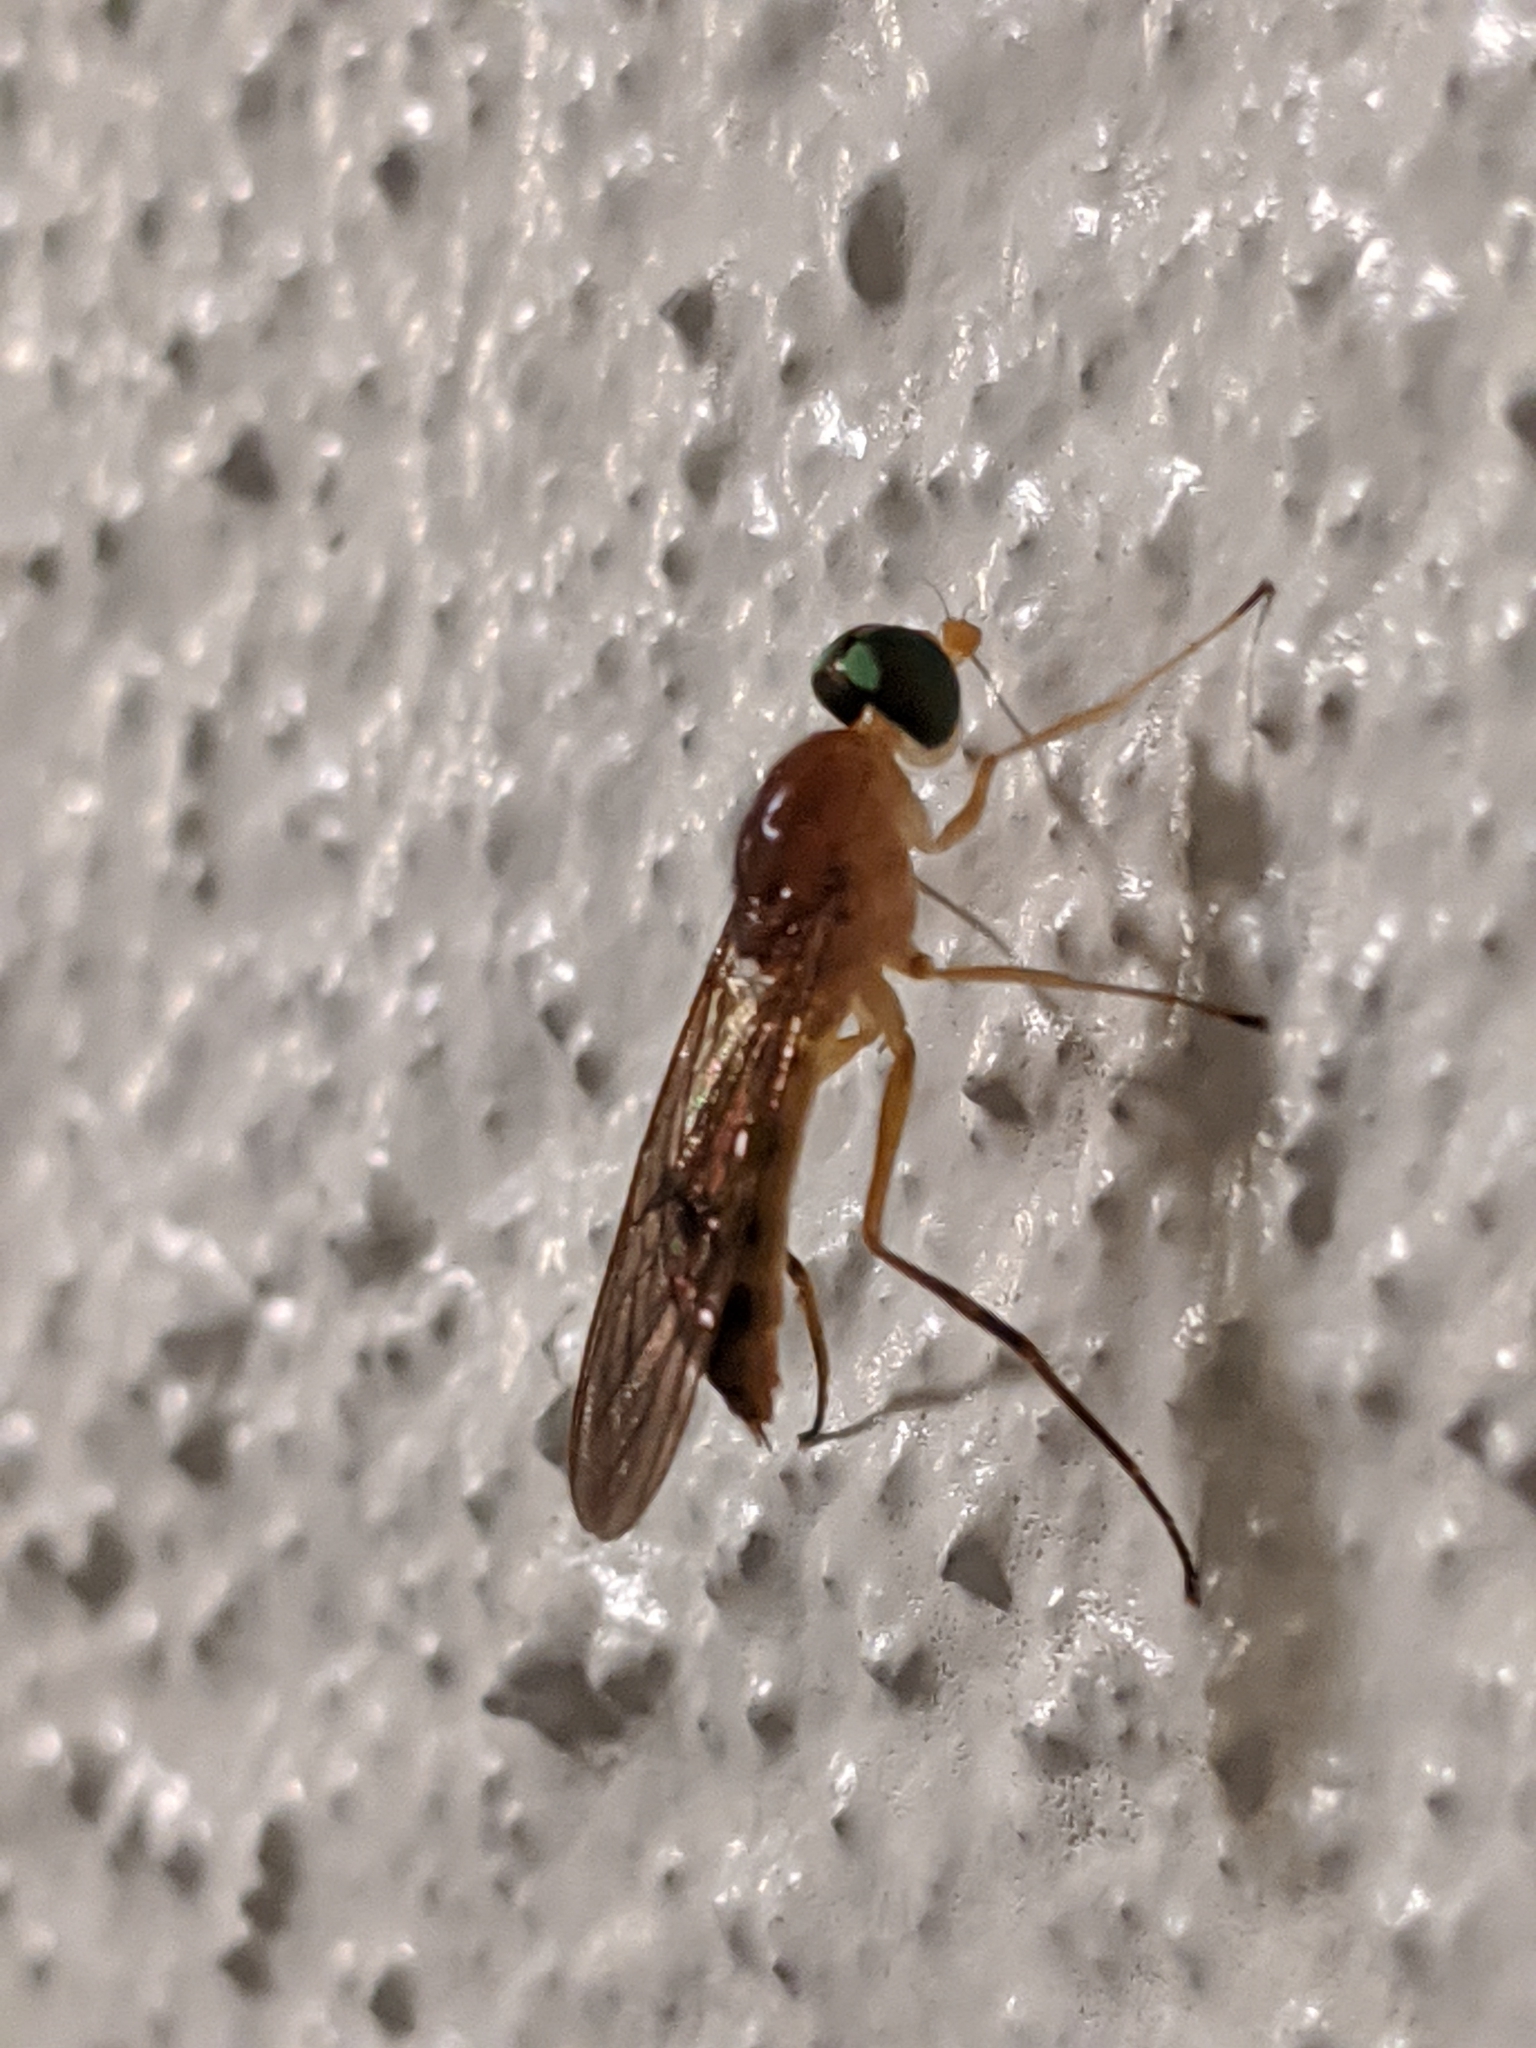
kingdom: Animalia
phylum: Arthropoda
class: Insecta
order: Diptera
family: Stratiomyidae
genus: Ptecticus
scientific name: Ptecticus trivittatus
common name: Compost fly
